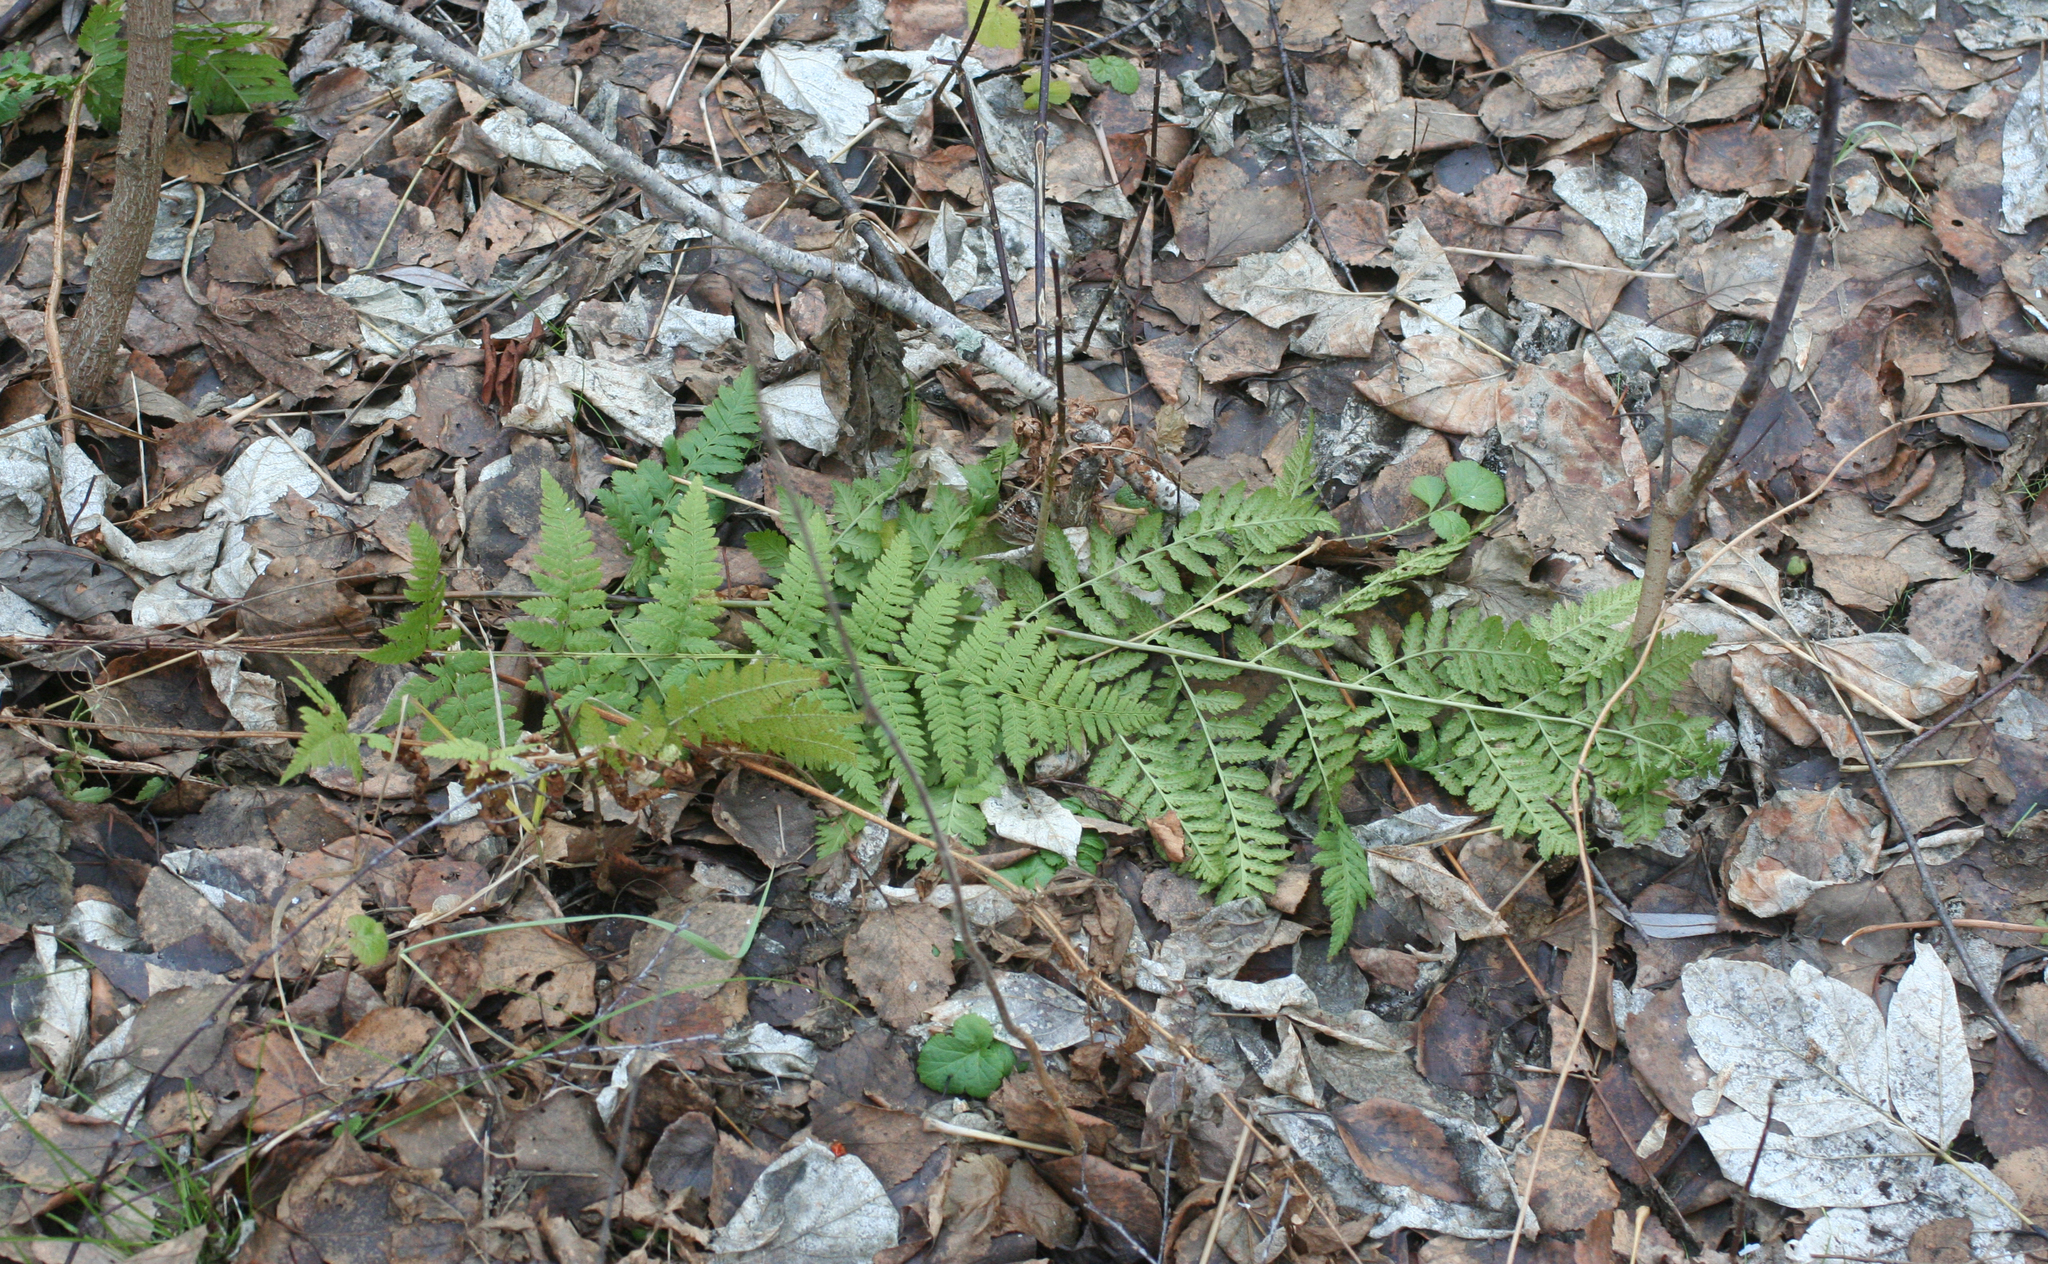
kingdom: Plantae
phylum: Tracheophyta
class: Polypodiopsida
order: Polypodiales
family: Dryopteridaceae
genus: Dryopteris
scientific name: Dryopteris carthusiana
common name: Narrow buckler-fern
